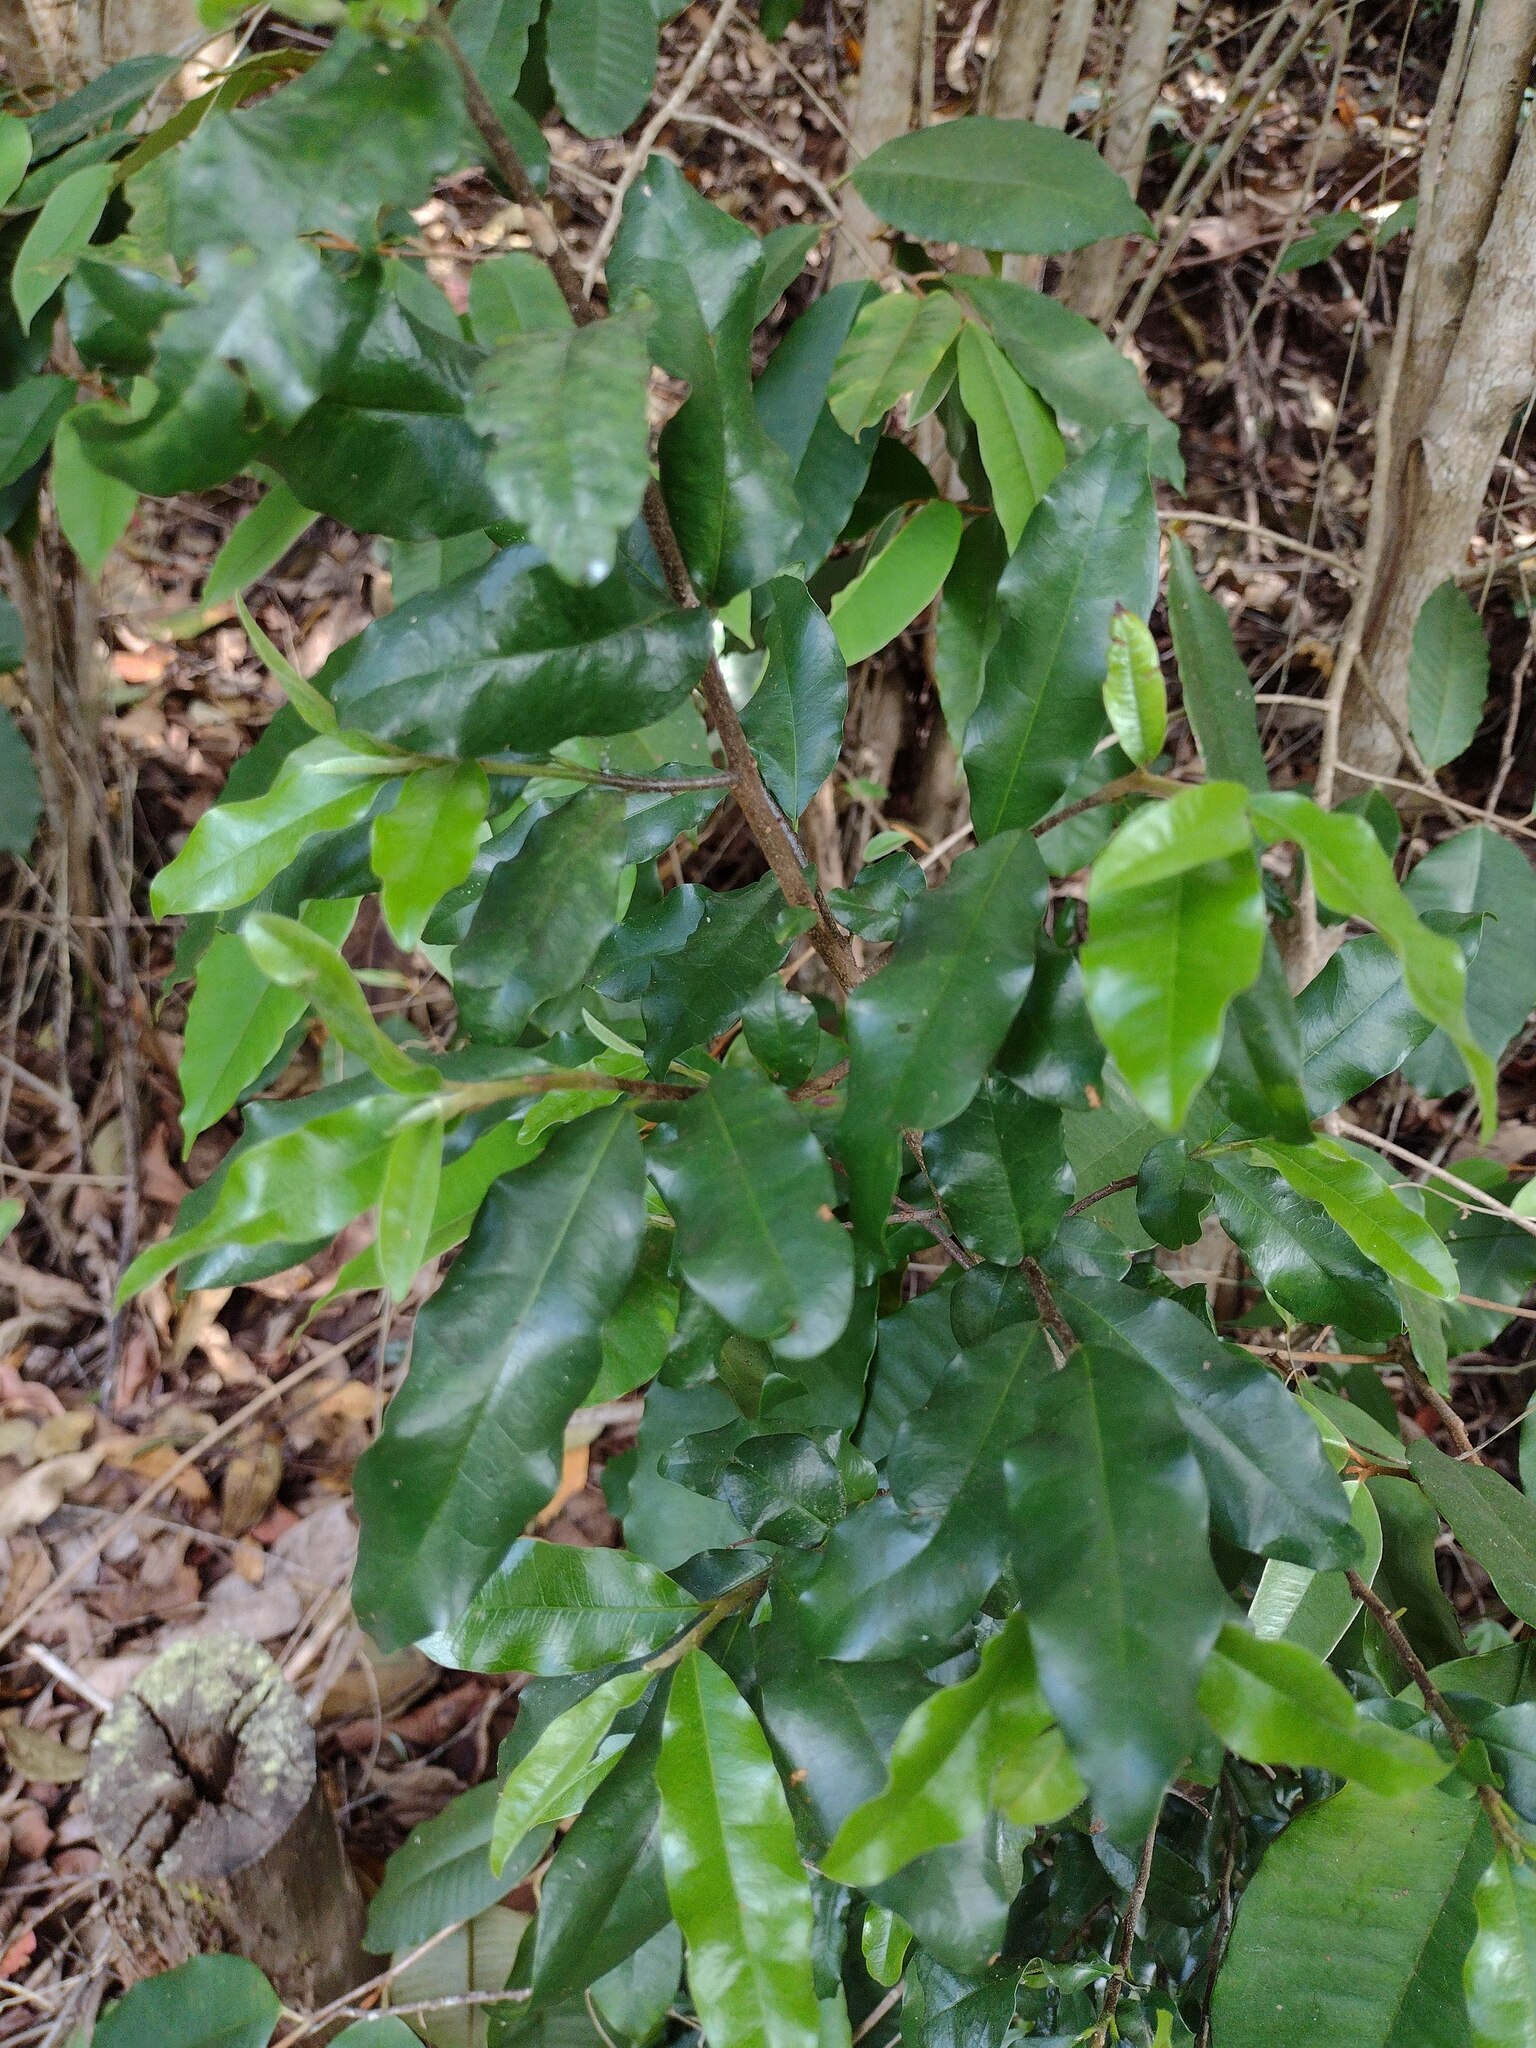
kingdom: Plantae
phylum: Tracheophyta
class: Magnoliopsida
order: Ericales
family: Sapotaceae
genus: Sideroxylon
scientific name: Sideroxylon persimile
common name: Bumelia
